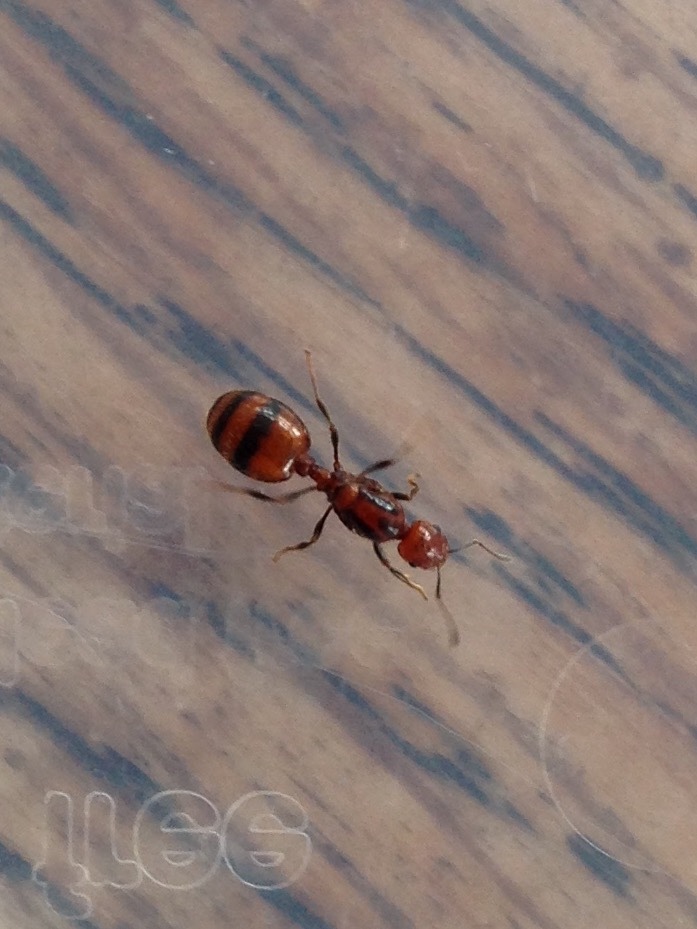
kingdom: Animalia
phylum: Arthropoda
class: Insecta
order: Hymenoptera
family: Formicidae
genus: Monomorium
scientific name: Monomorium antarcticum
